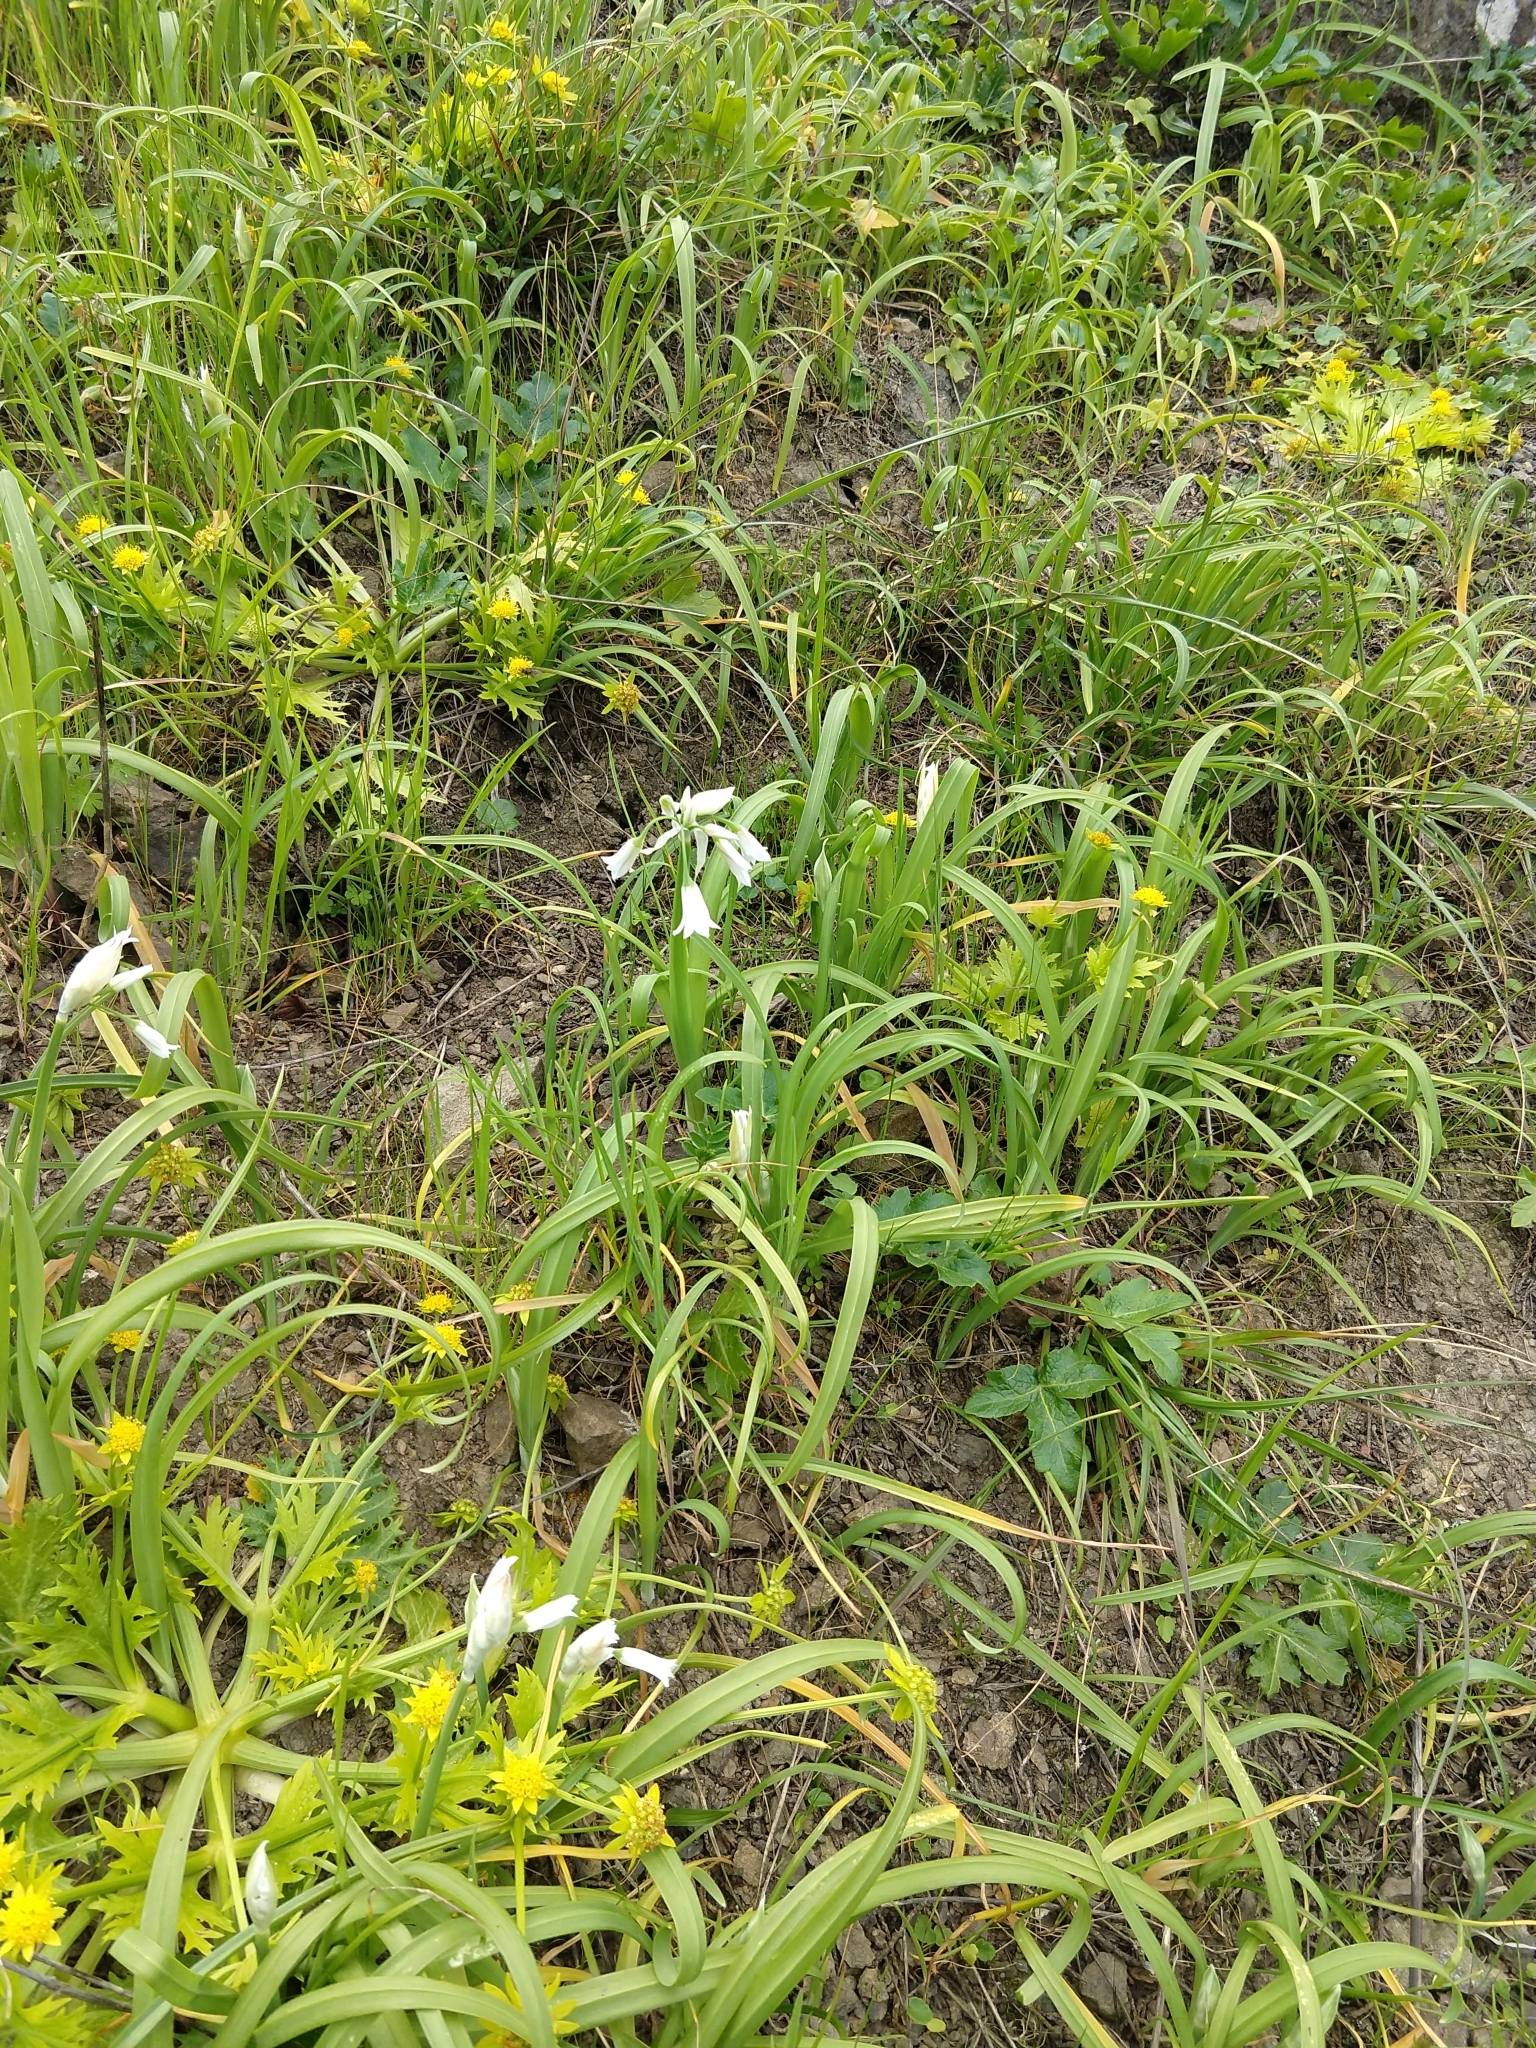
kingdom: Plantae
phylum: Tracheophyta
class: Liliopsida
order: Asparagales
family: Amaryllidaceae
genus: Allium
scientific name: Allium triquetrum
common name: Three-cornered garlic
